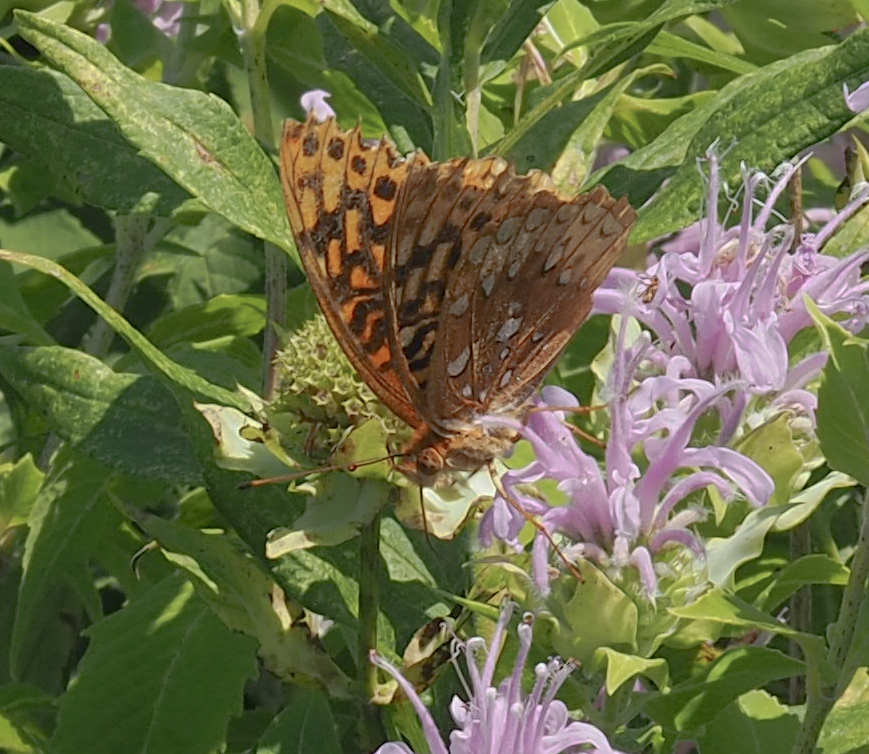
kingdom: Animalia
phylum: Arthropoda
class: Insecta
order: Lepidoptera
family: Nymphalidae
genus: Speyeria
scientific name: Speyeria cybele
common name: Great spangled fritillary
